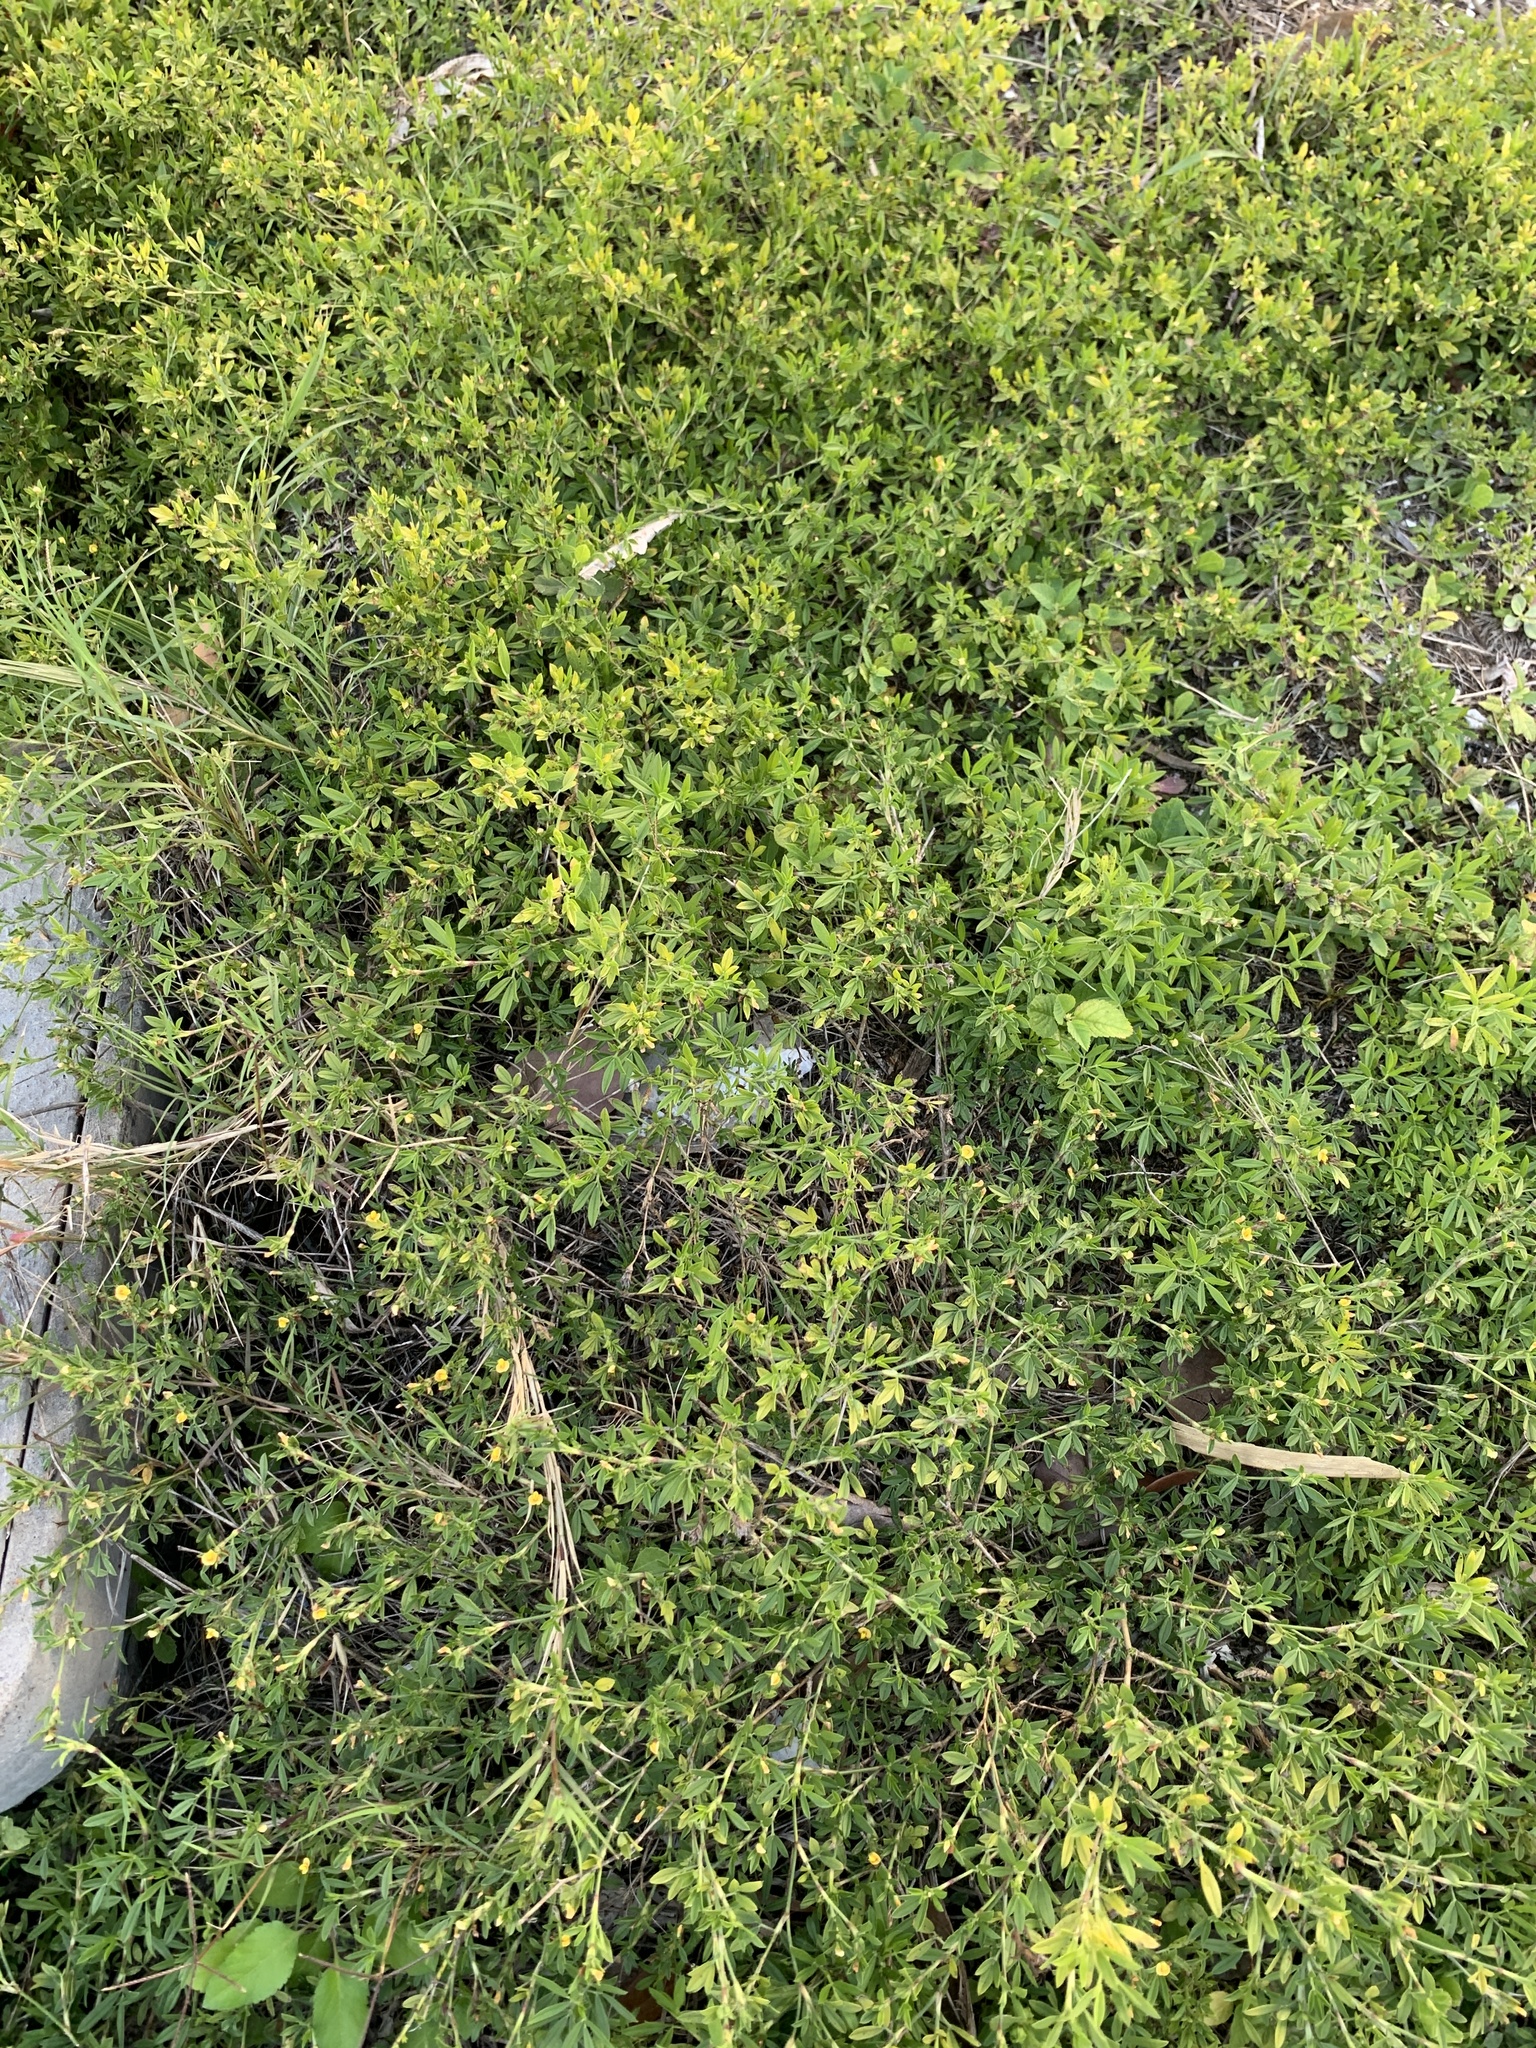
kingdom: Plantae
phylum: Tracheophyta
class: Magnoliopsida
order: Fabales
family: Fabaceae
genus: Stylosanthes
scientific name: Stylosanthes hamata
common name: Cheesytoes
